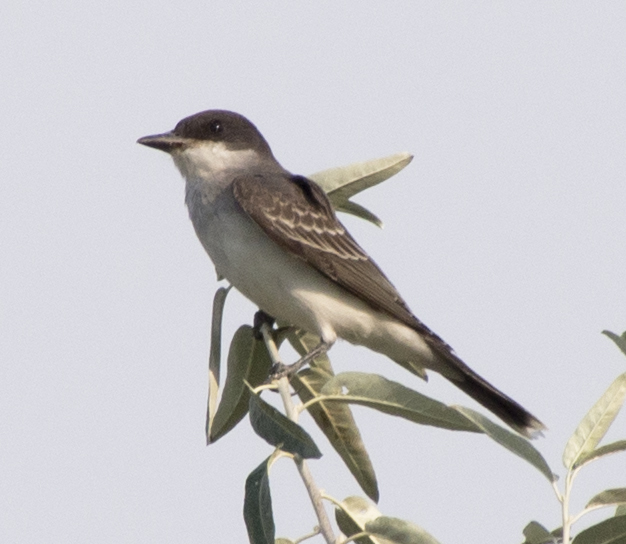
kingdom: Animalia
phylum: Chordata
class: Aves
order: Passeriformes
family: Tyrannidae
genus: Tyrannus
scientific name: Tyrannus tyrannus
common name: Eastern kingbird
